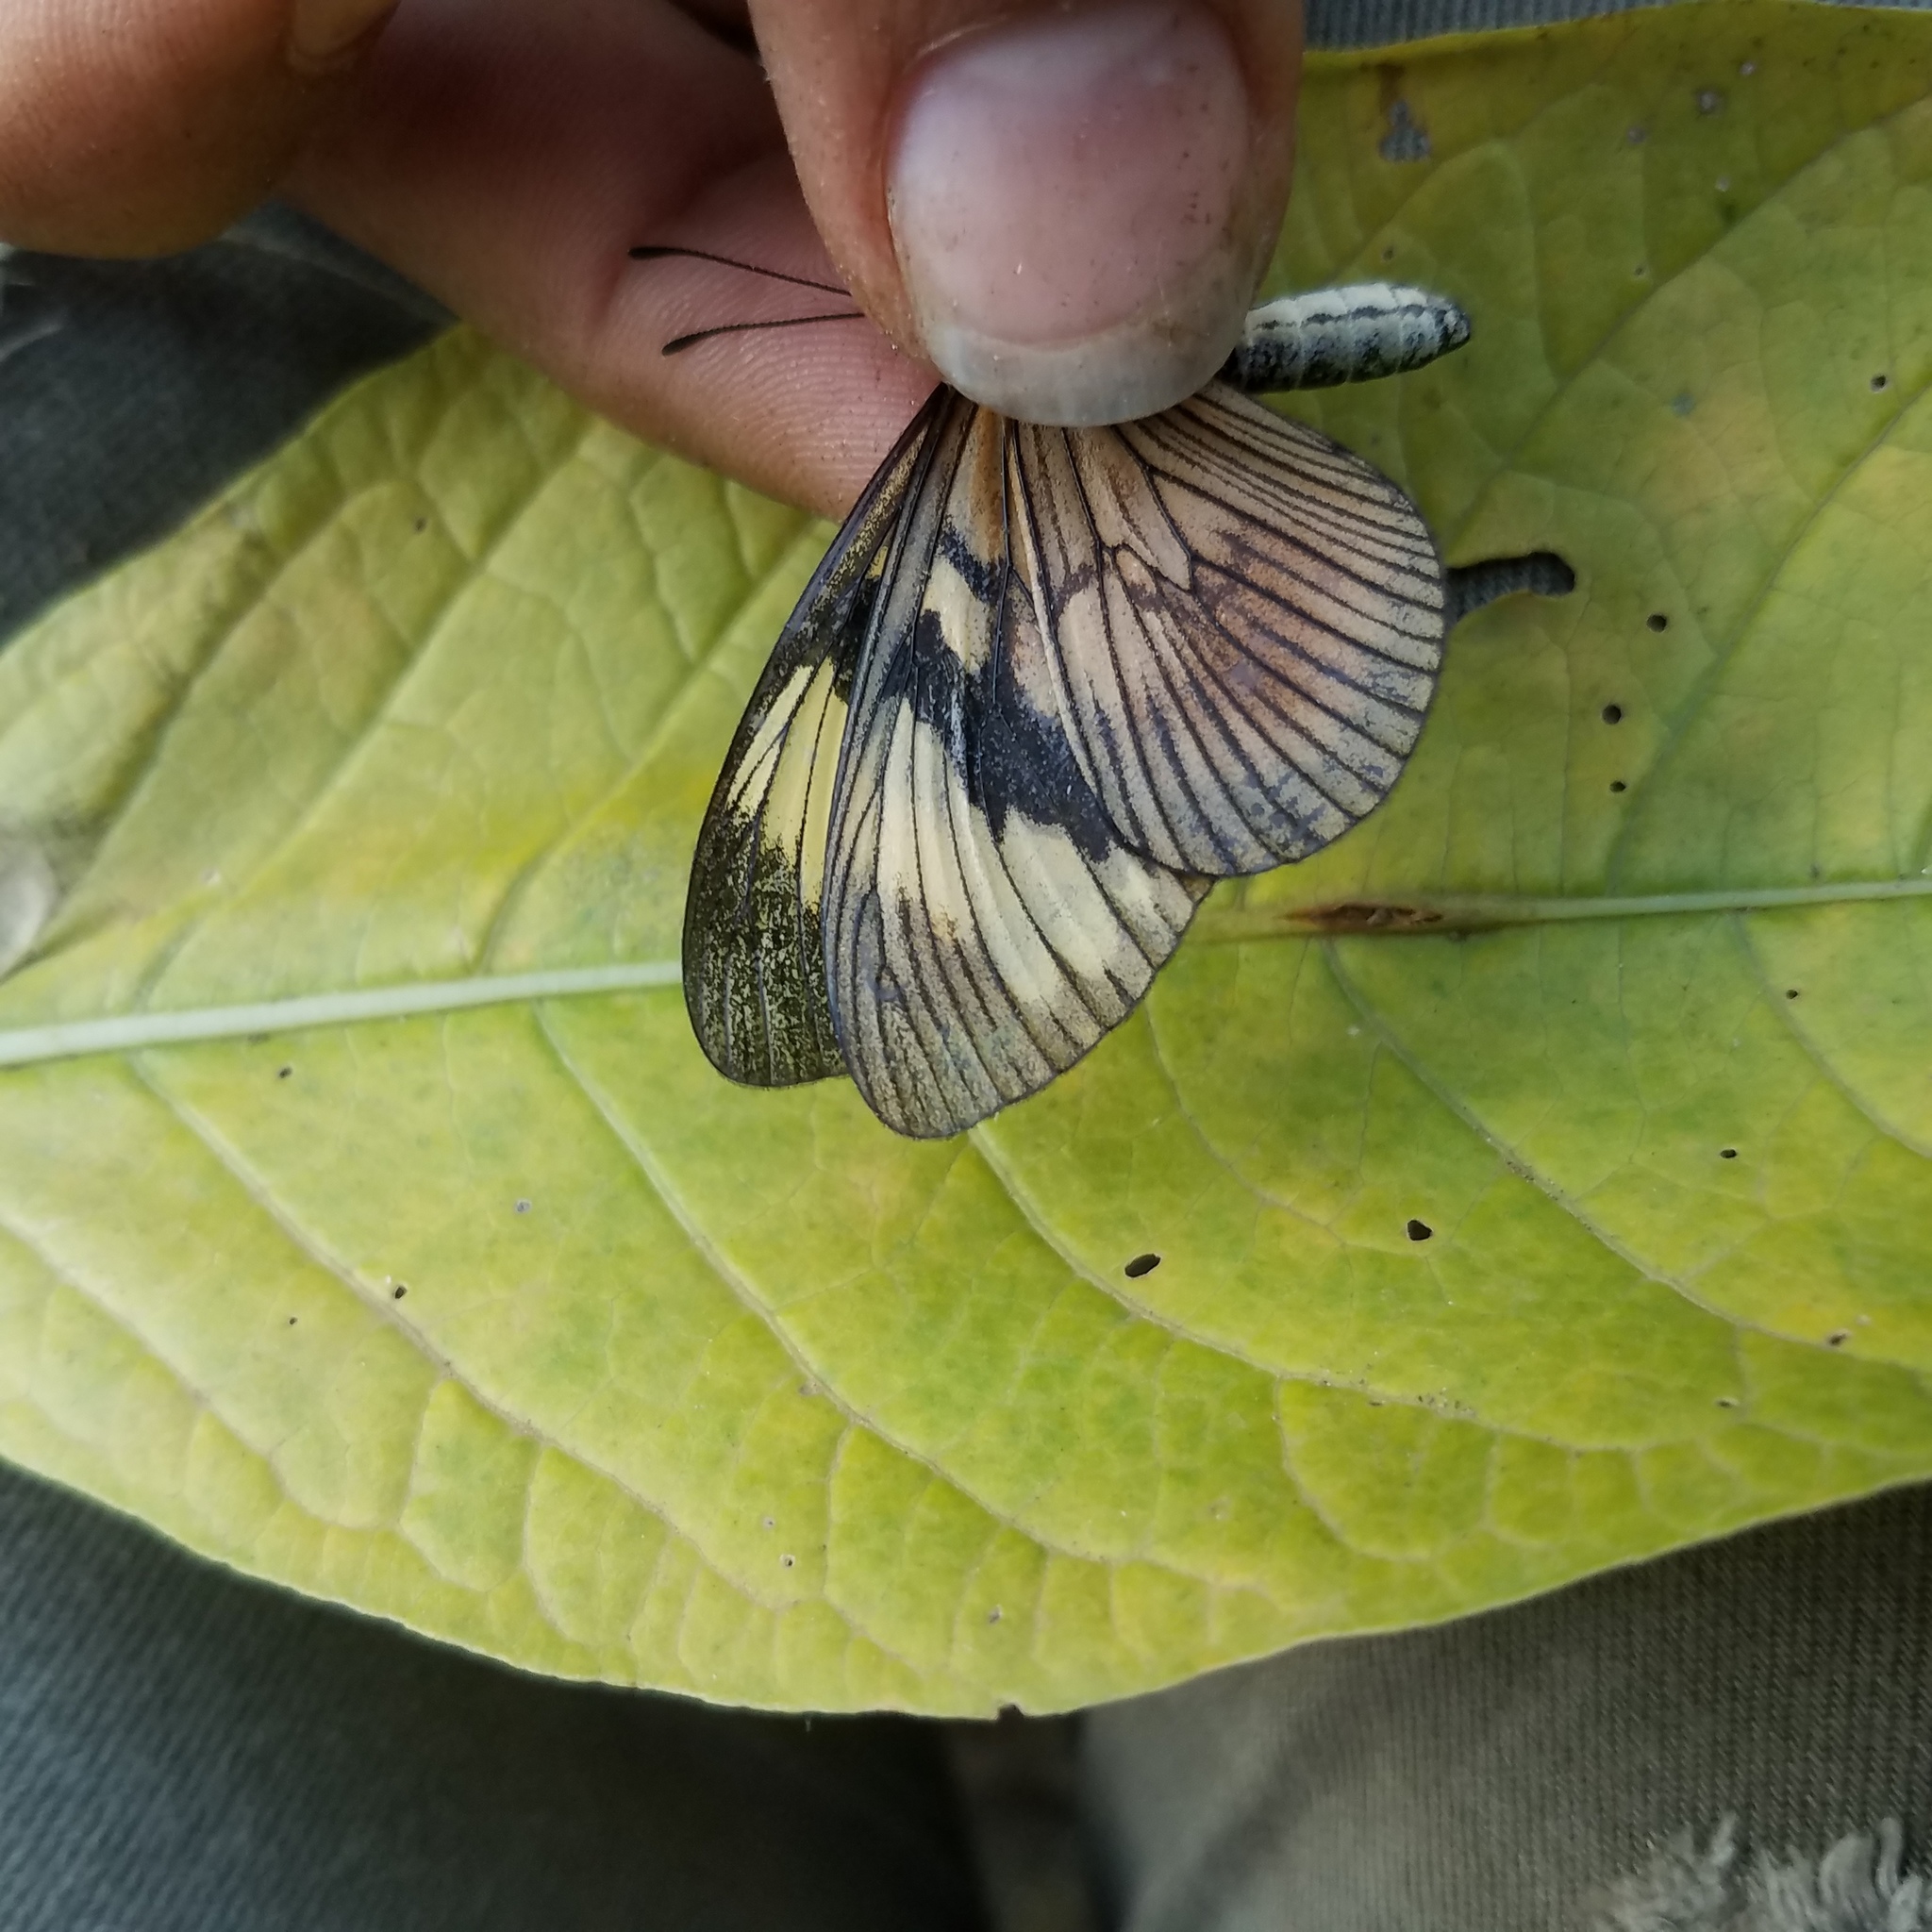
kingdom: Animalia
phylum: Arthropoda
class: Insecta
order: Lepidoptera
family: Nymphalidae
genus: Actinote
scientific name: Actinote anteas
